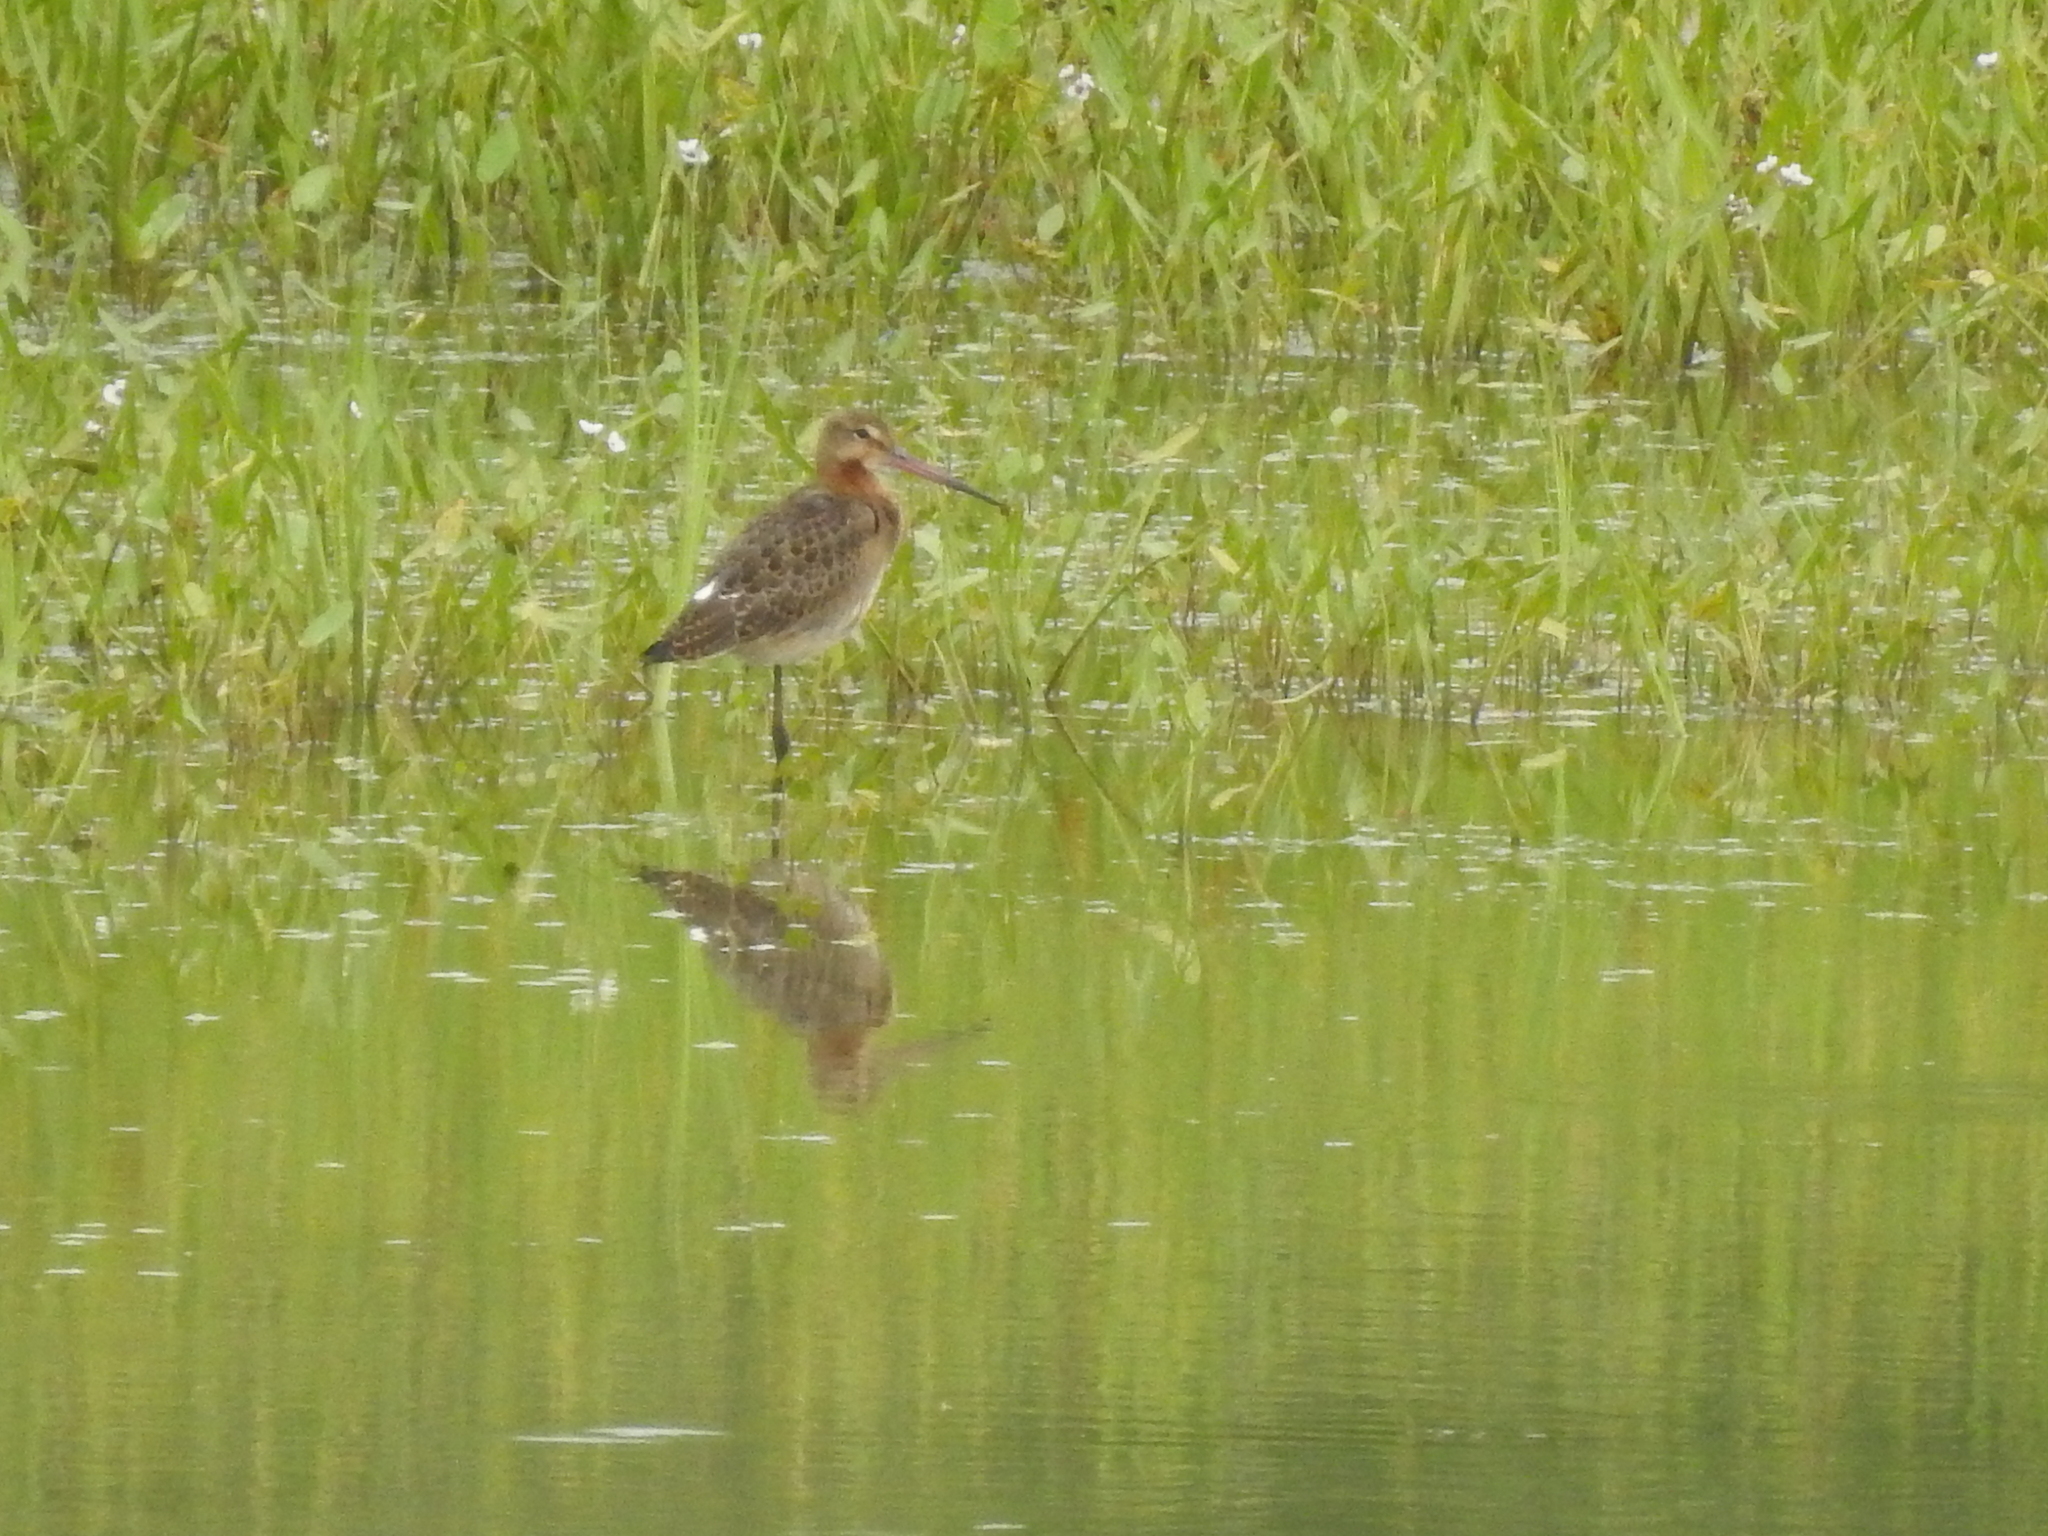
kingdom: Animalia
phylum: Chordata
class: Aves
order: Charadriiformes
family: Scolopacidae
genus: Limosa
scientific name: Limosa limosa
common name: Black-tailed godwit
